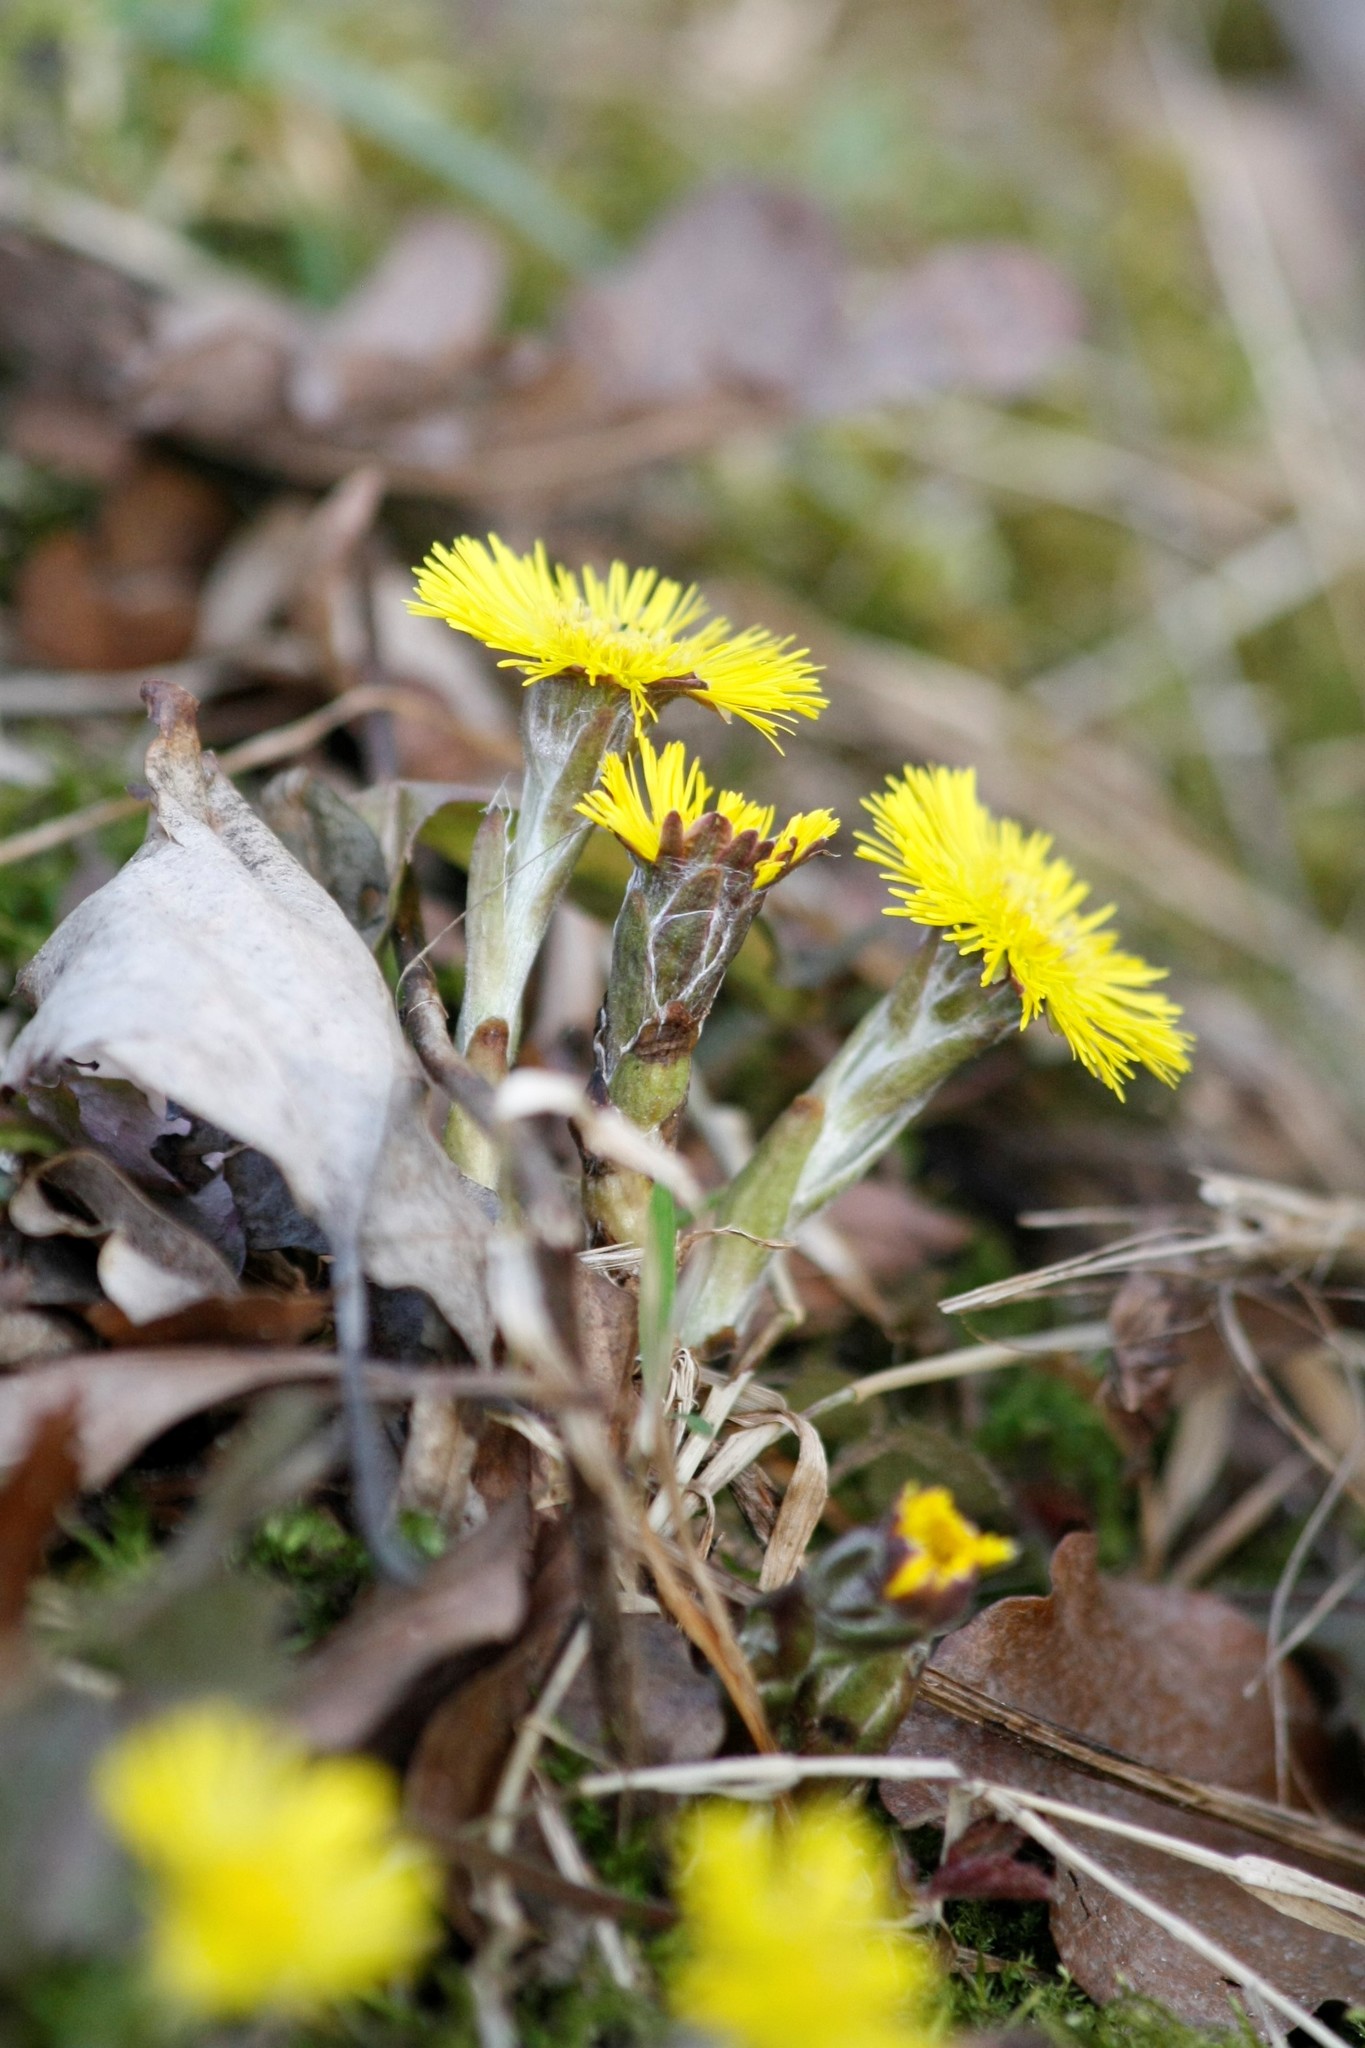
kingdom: Plantae
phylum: Tracheophyta
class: Magnoliopsida
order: Asterales
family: Asteraceae
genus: Tussilago
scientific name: Tussilago farfara
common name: Coltsfoot
